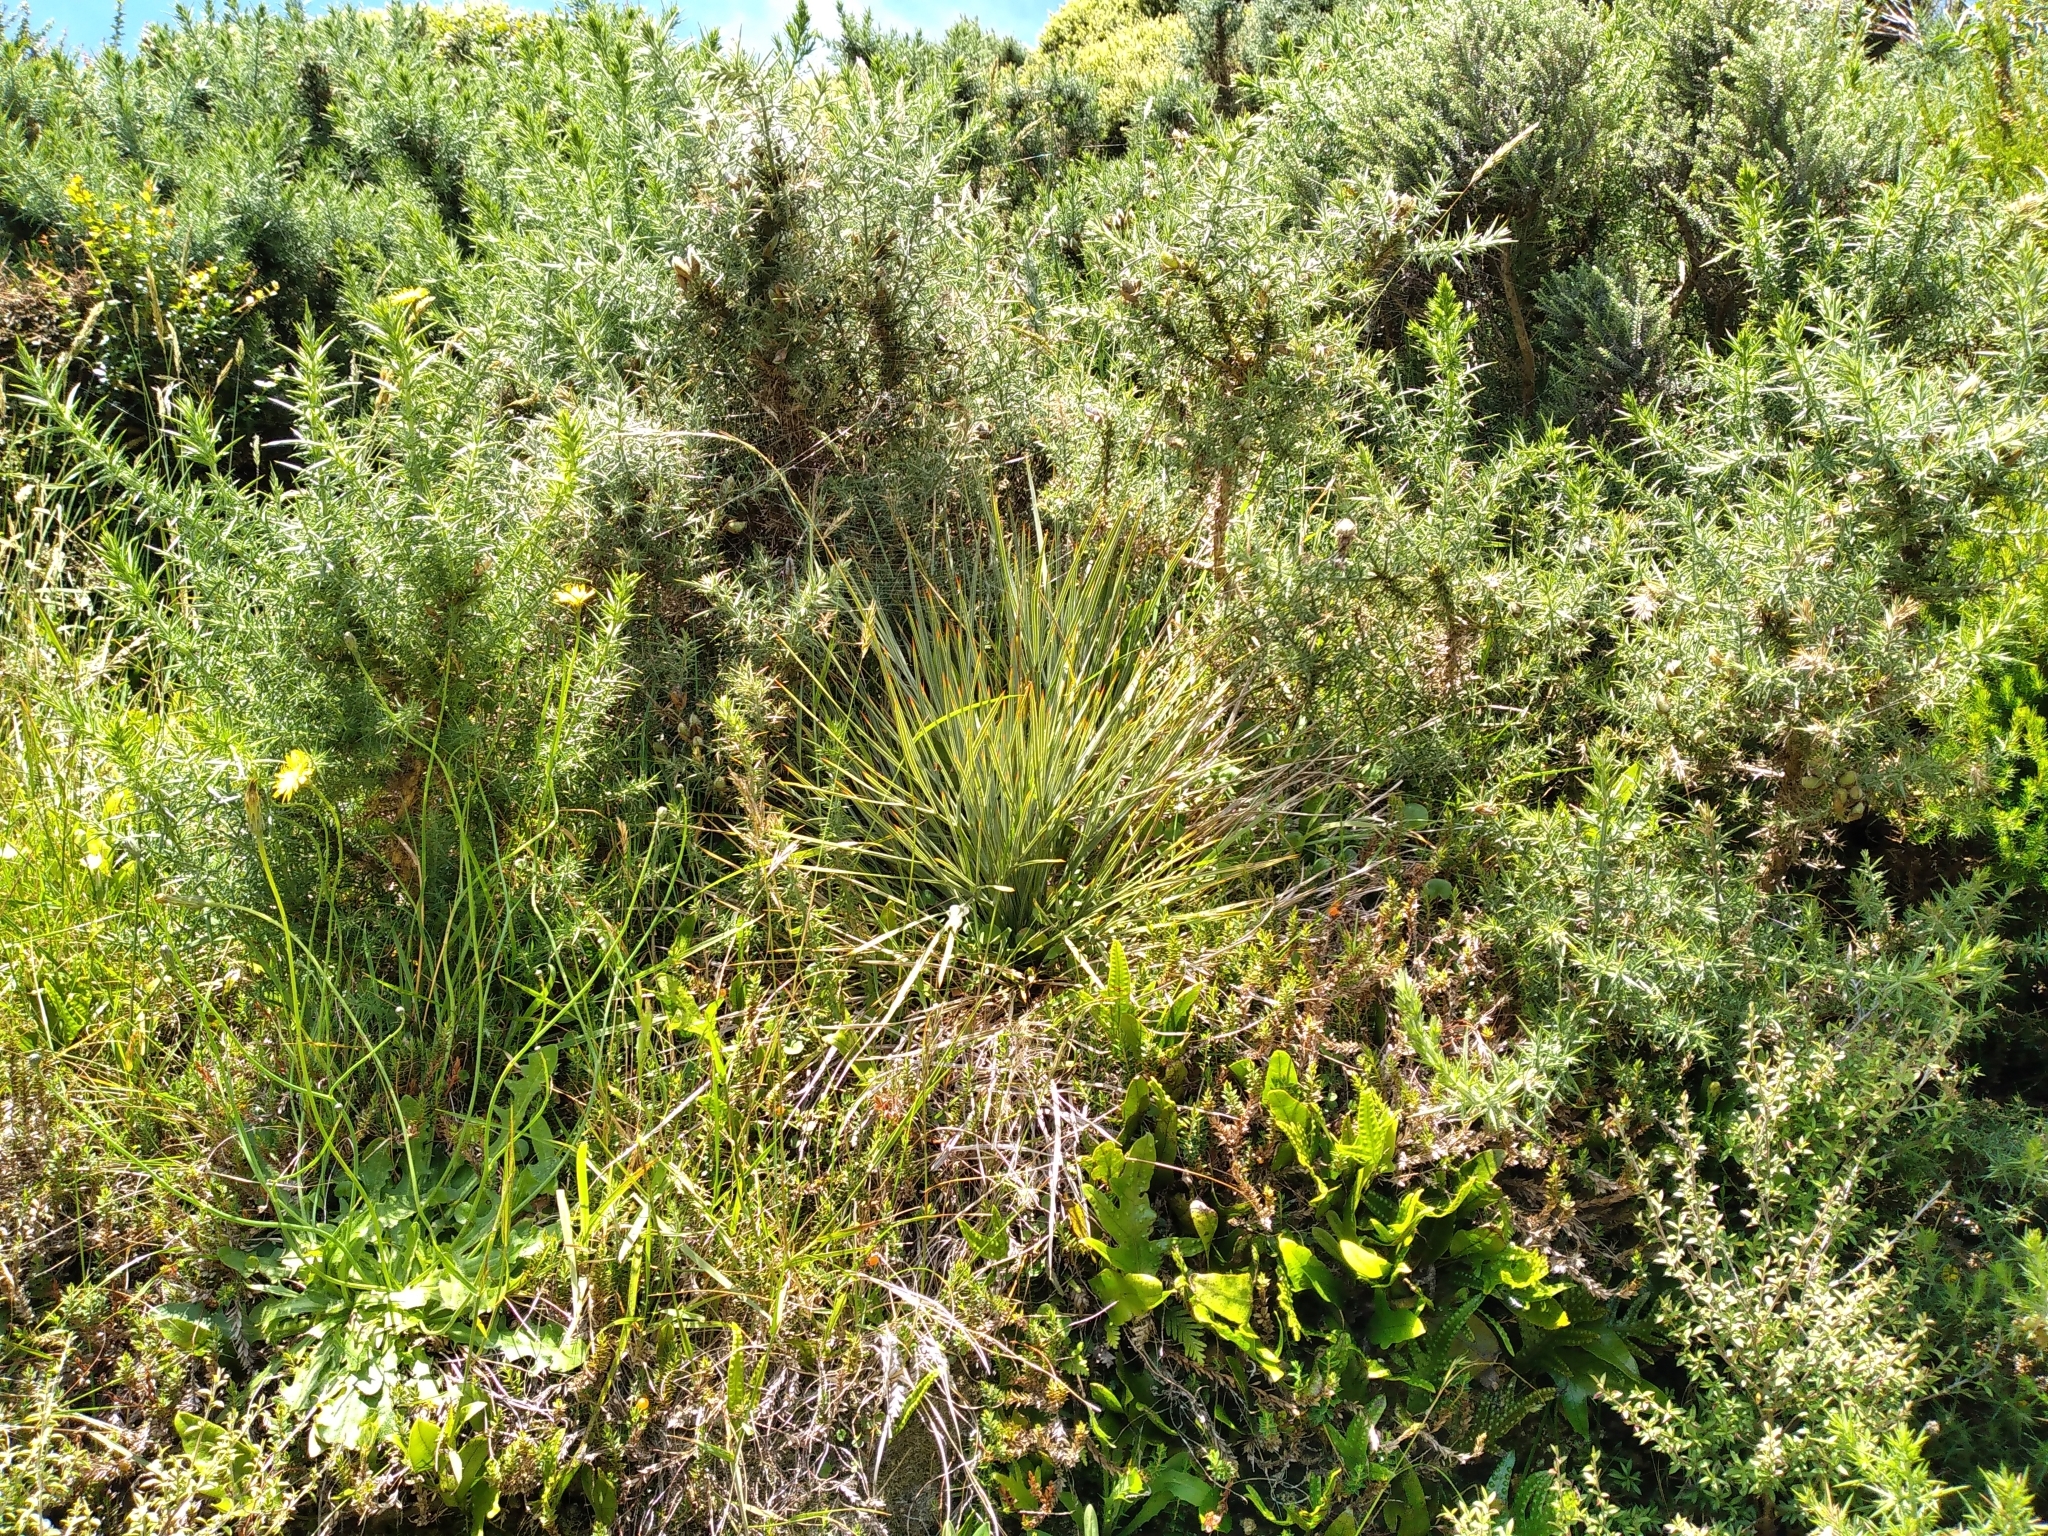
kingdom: Plantae
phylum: Tracheophyta
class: Magnoliopsida
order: Apiales
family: Apiaceae
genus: Aciphylla
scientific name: Aciphylla squarrosa
